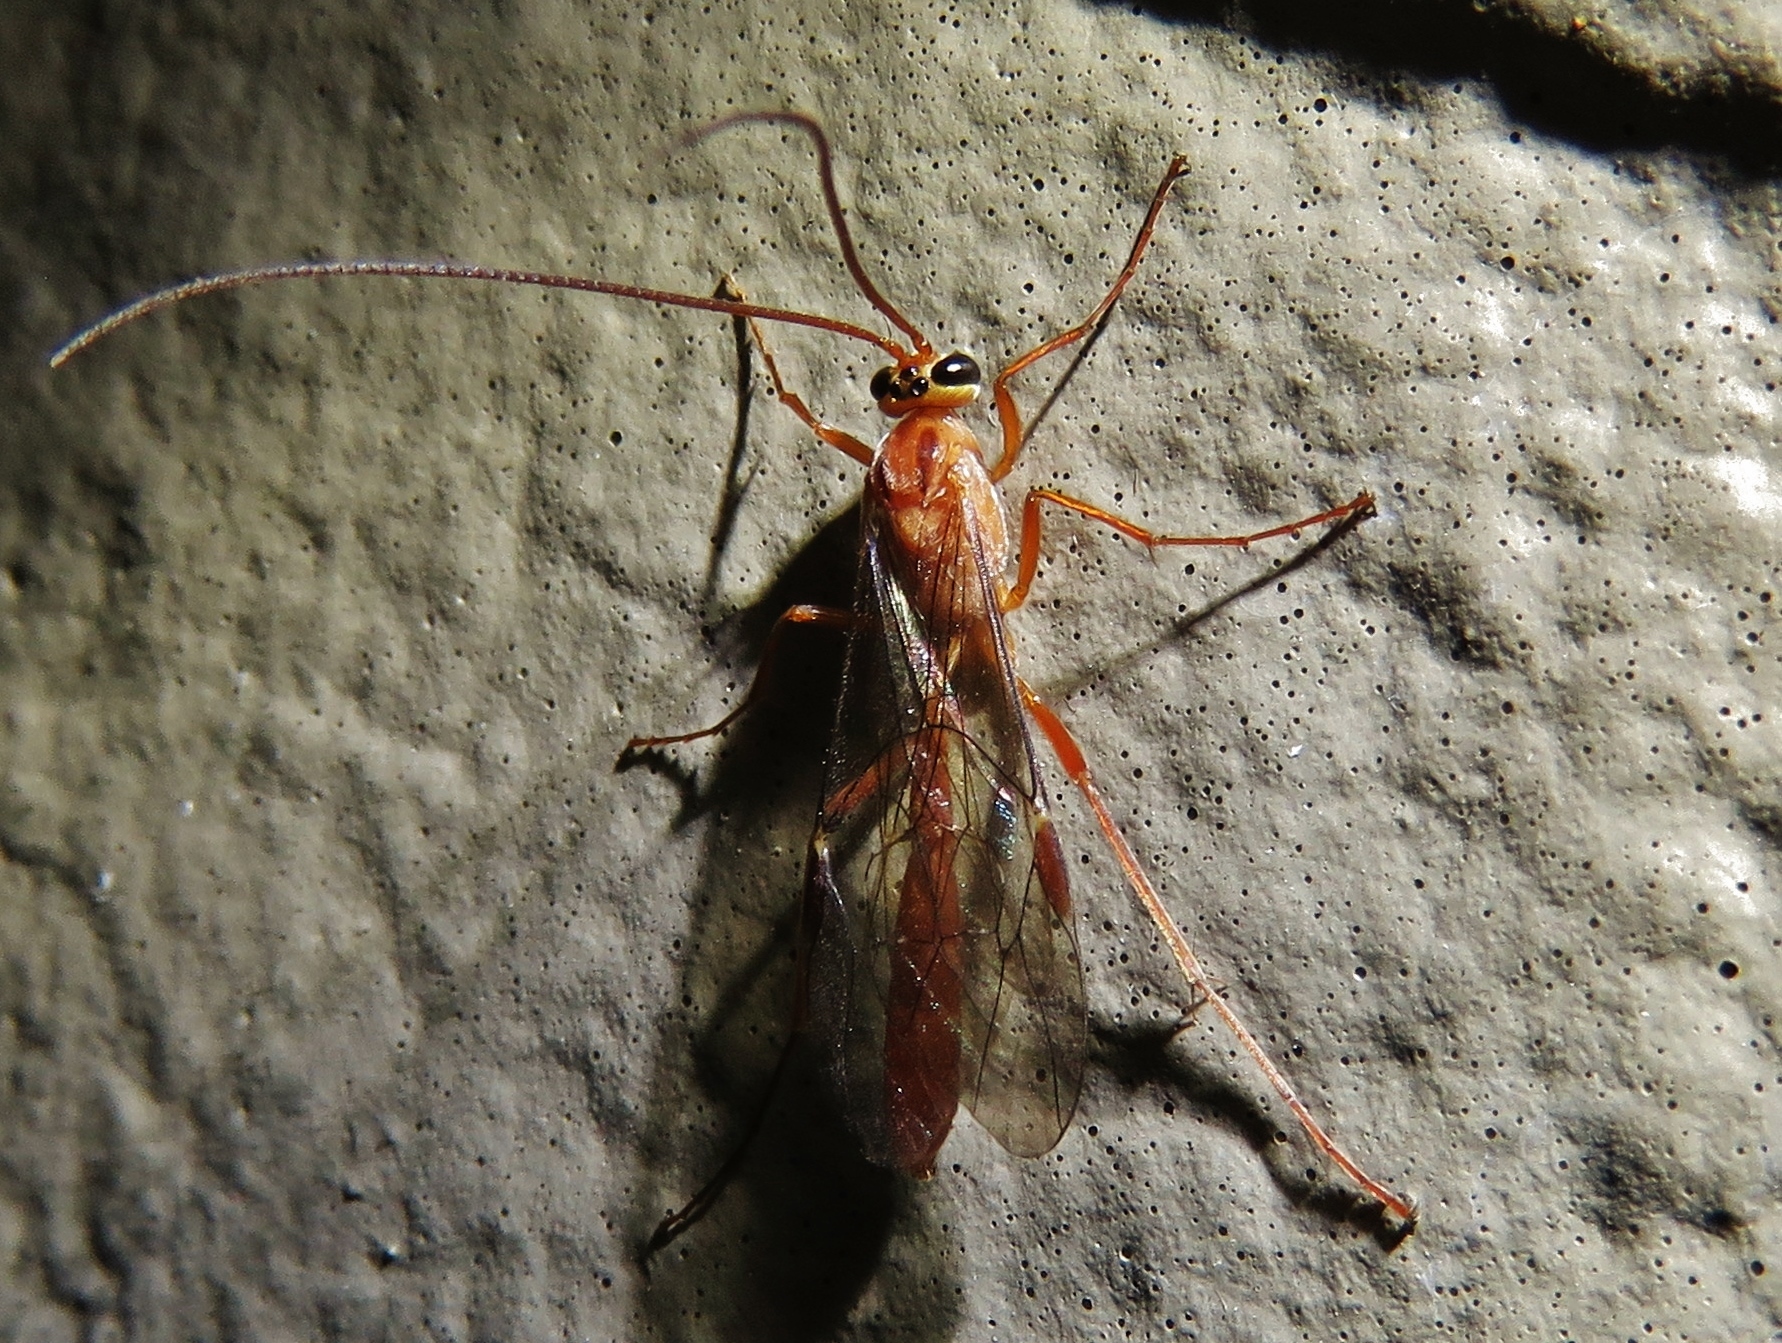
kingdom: Animalia
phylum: Arthropoda
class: Insecta
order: Hymenoptera
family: Ichneumonidae
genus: Ophion
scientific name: Ophion
